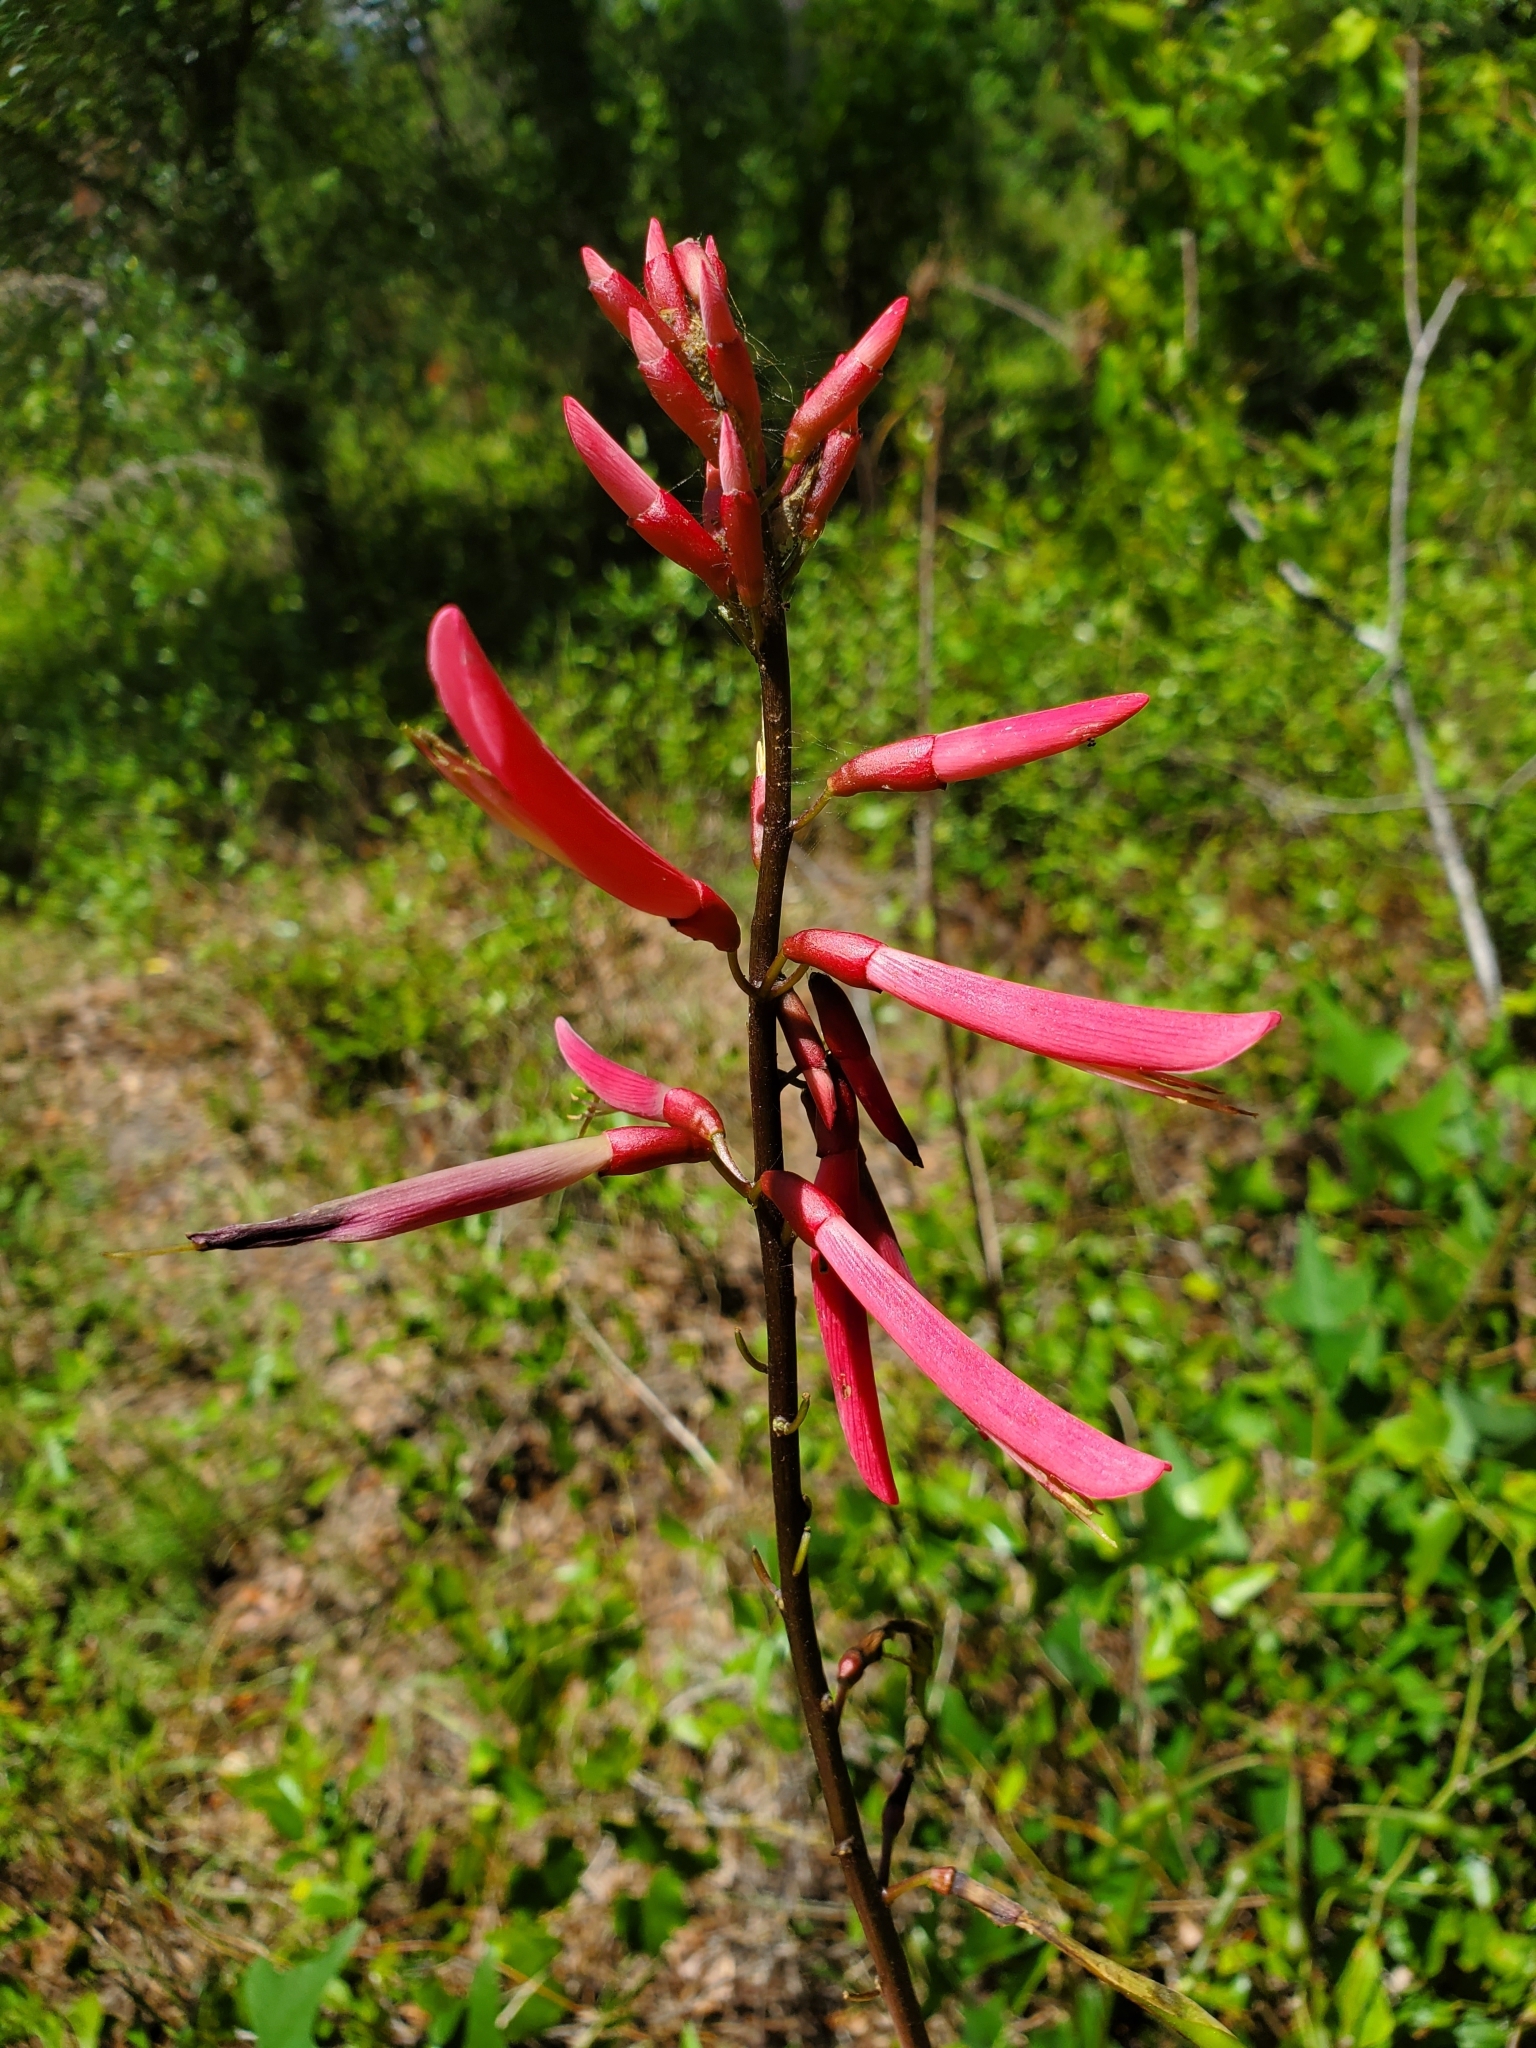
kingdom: Plantae
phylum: Tracheophyta
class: Magnoliopsida
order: Fabales
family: Fabaceae
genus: Erythrina
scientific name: Erythrina herbacea
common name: Coral-bean
